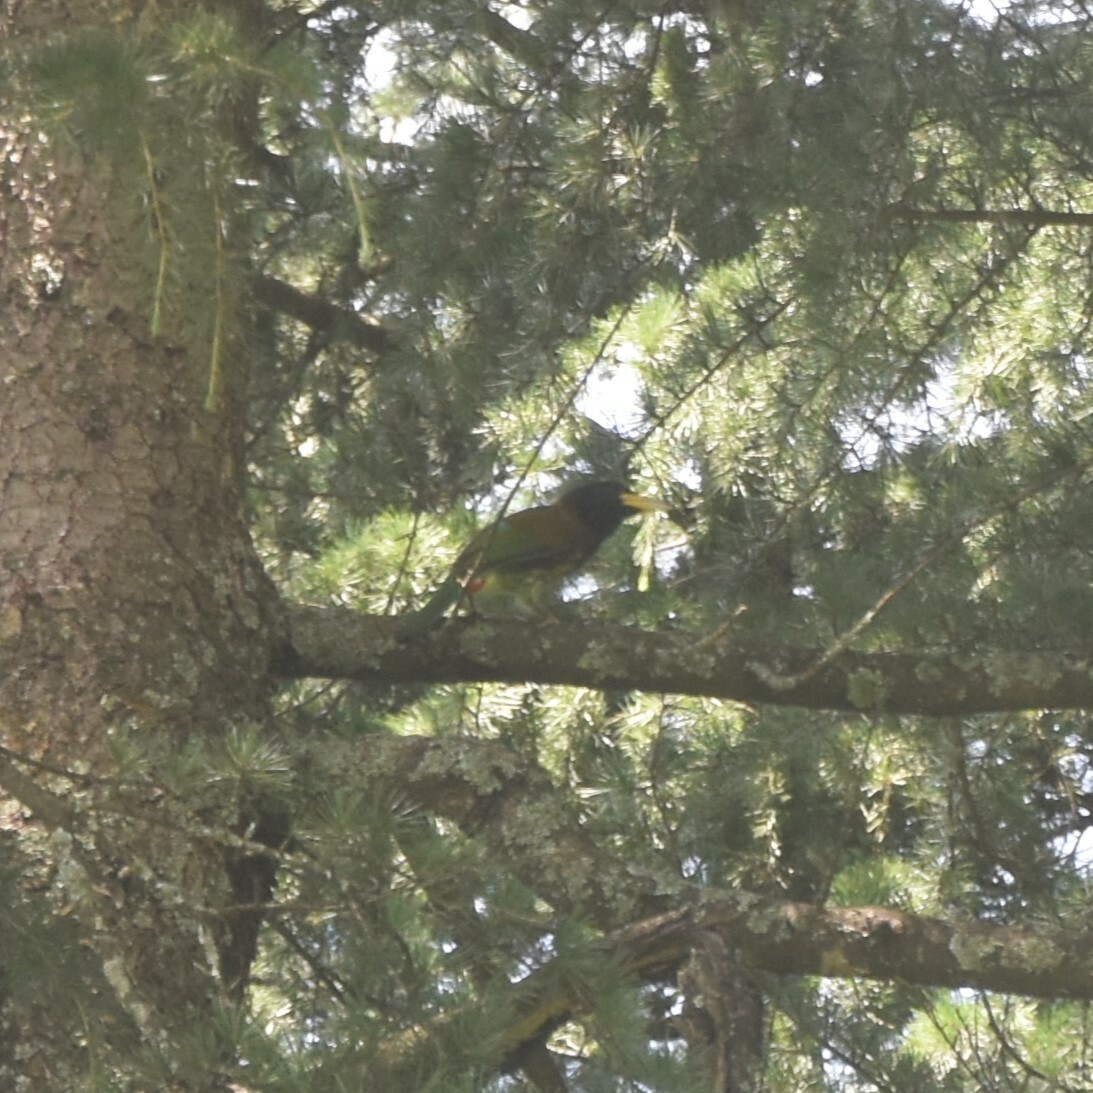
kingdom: Animalia
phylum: Chordata
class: Aves
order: Piciformes
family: Megalaimidae
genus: Psilopogon
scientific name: Psilopogon virens
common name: Great barbet
